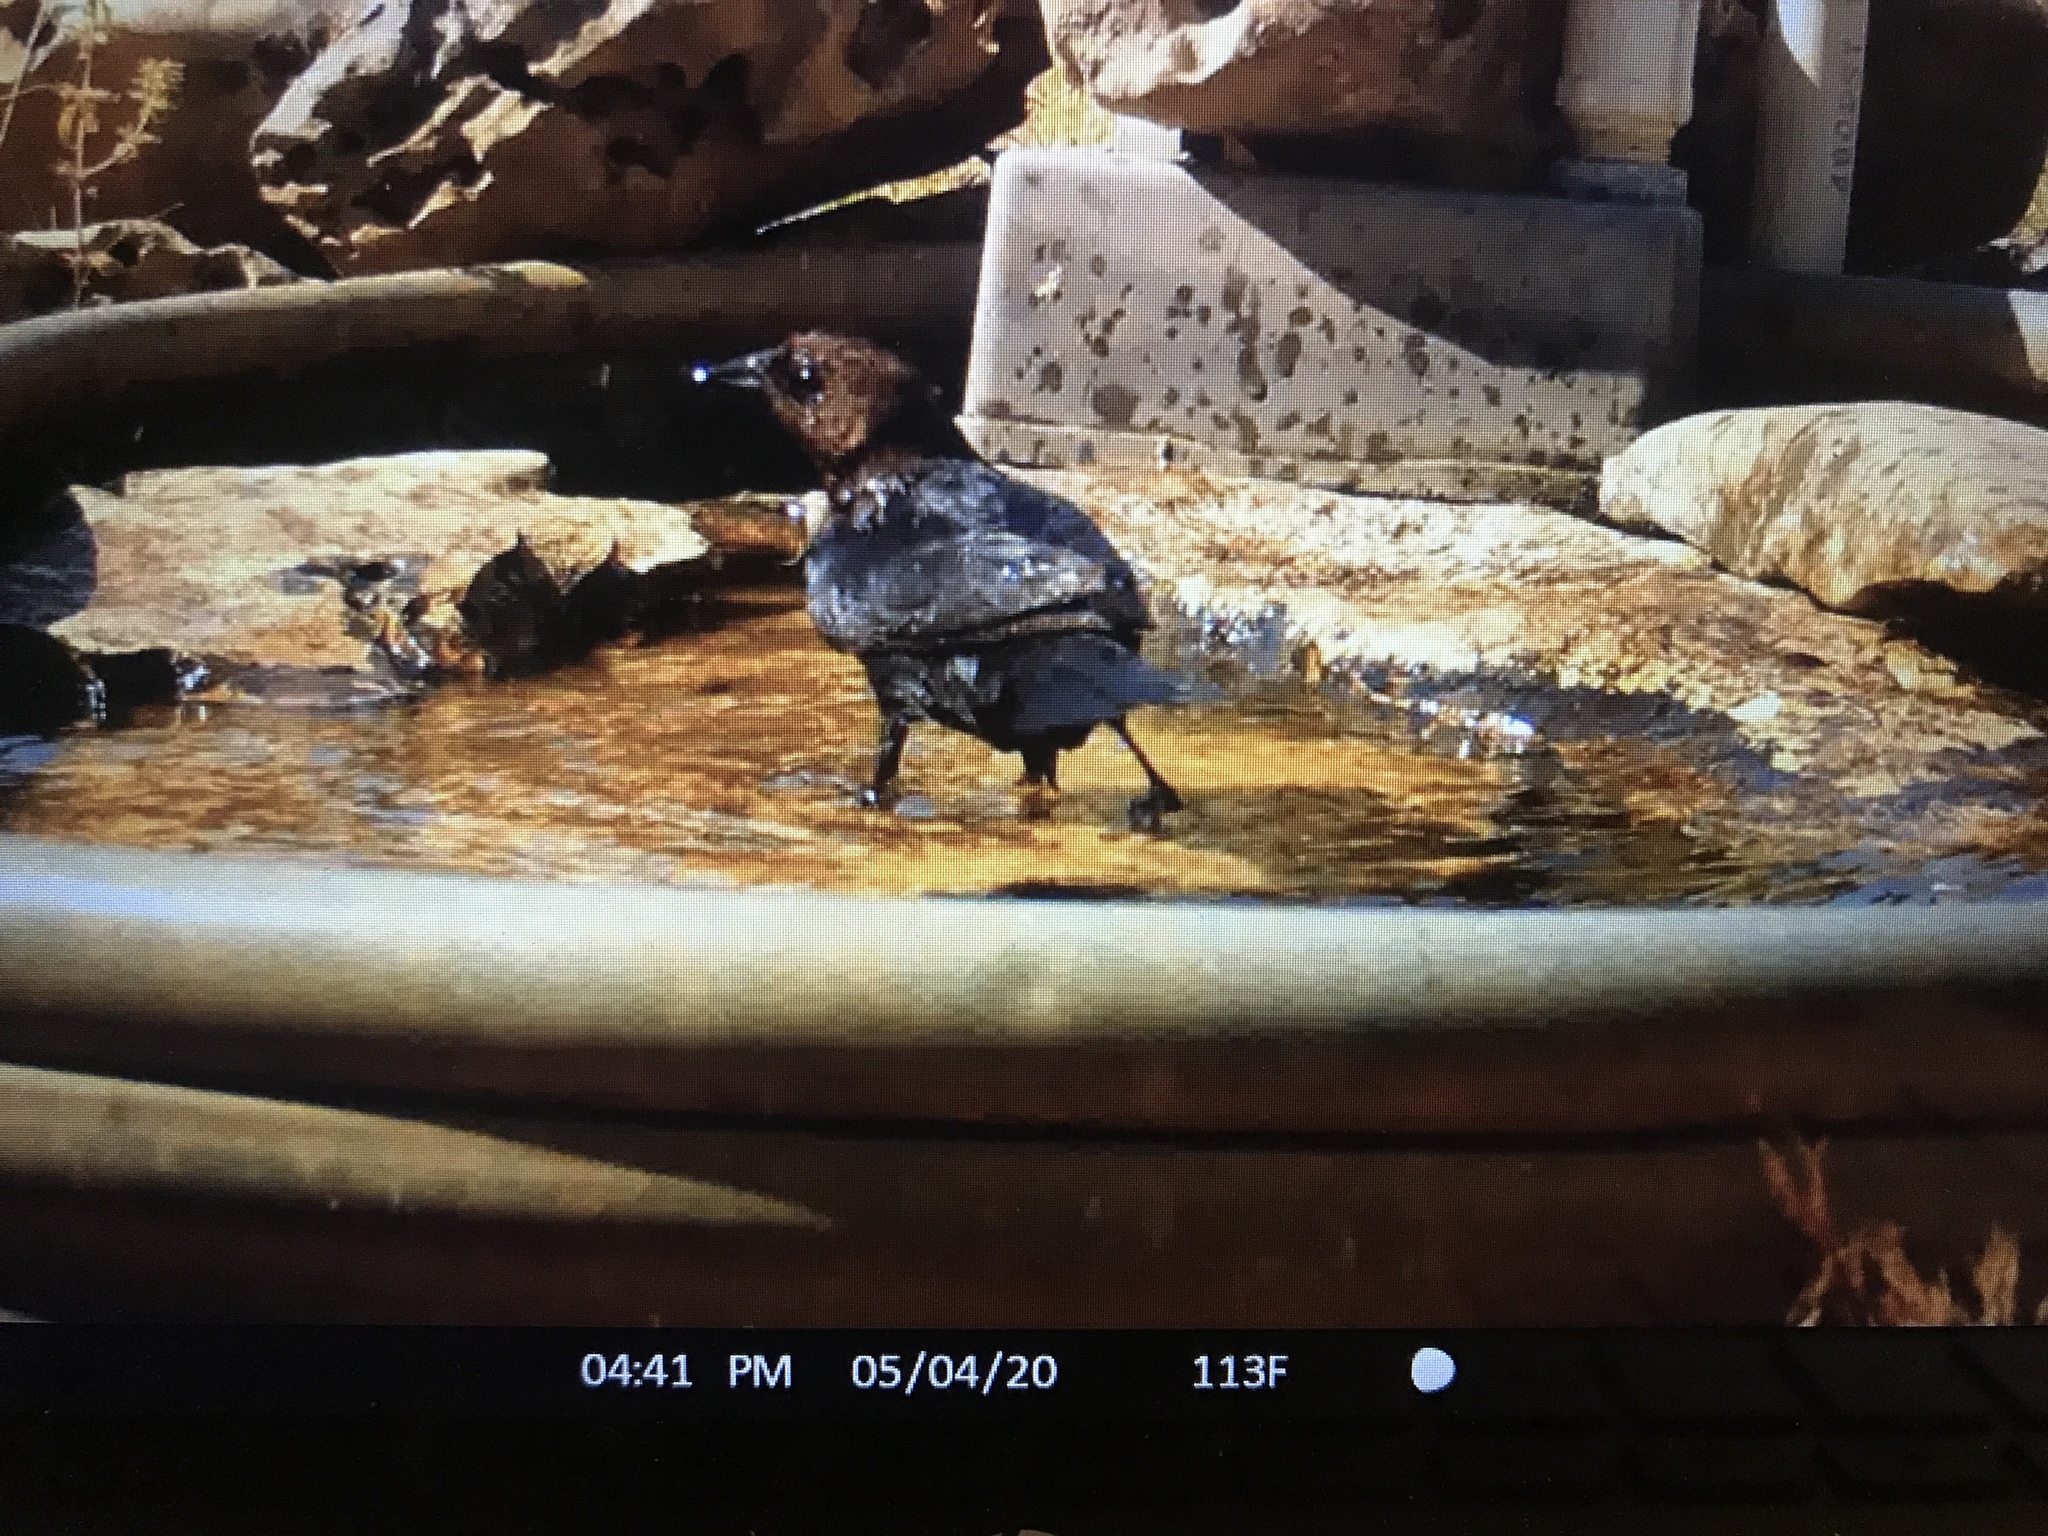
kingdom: Animalia
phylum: Chordata
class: Aves
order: Passeriformes
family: Icteridae
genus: Molothrus
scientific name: Molothrus ater
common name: Brown-headed cowbird
